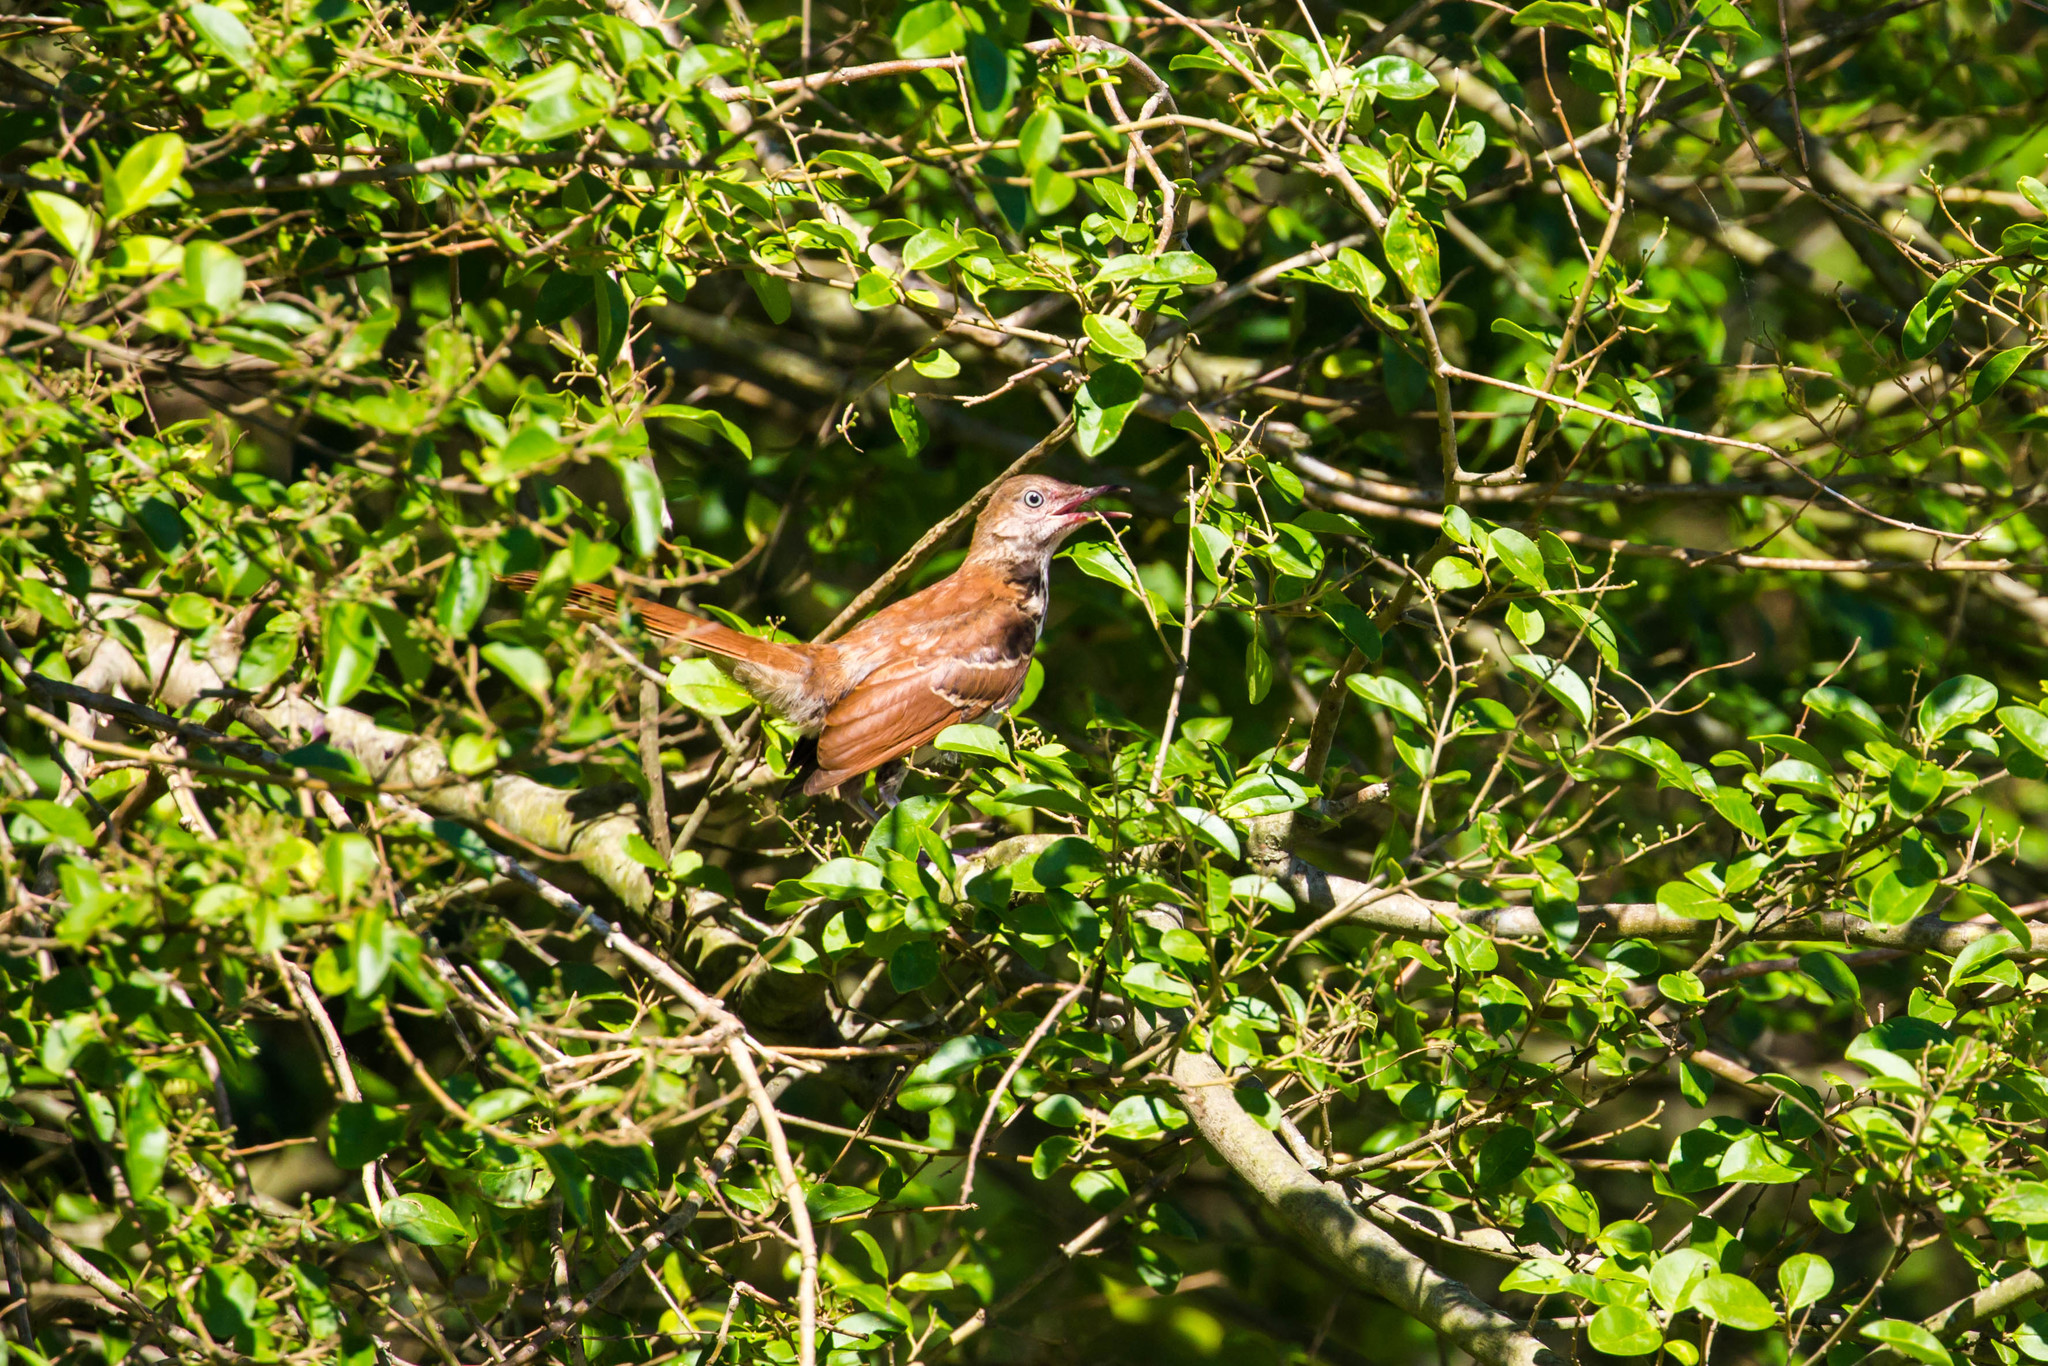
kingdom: Animalia
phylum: Chordata
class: Aves
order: Passeriformes
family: Mimidae
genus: Toxostoma
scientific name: Toxostoma rufum
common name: Brown thrasher
